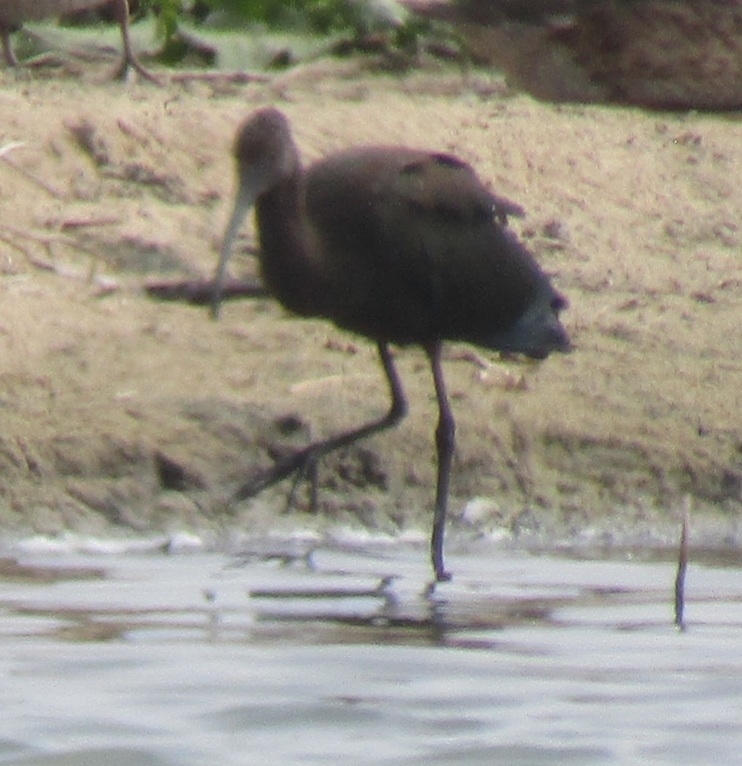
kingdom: Animalia
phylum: Chordata
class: Aves
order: Pelecaniformes
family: Threskiornithidae
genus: Plegadis
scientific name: Plegadis chihi
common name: White-faced ibis
